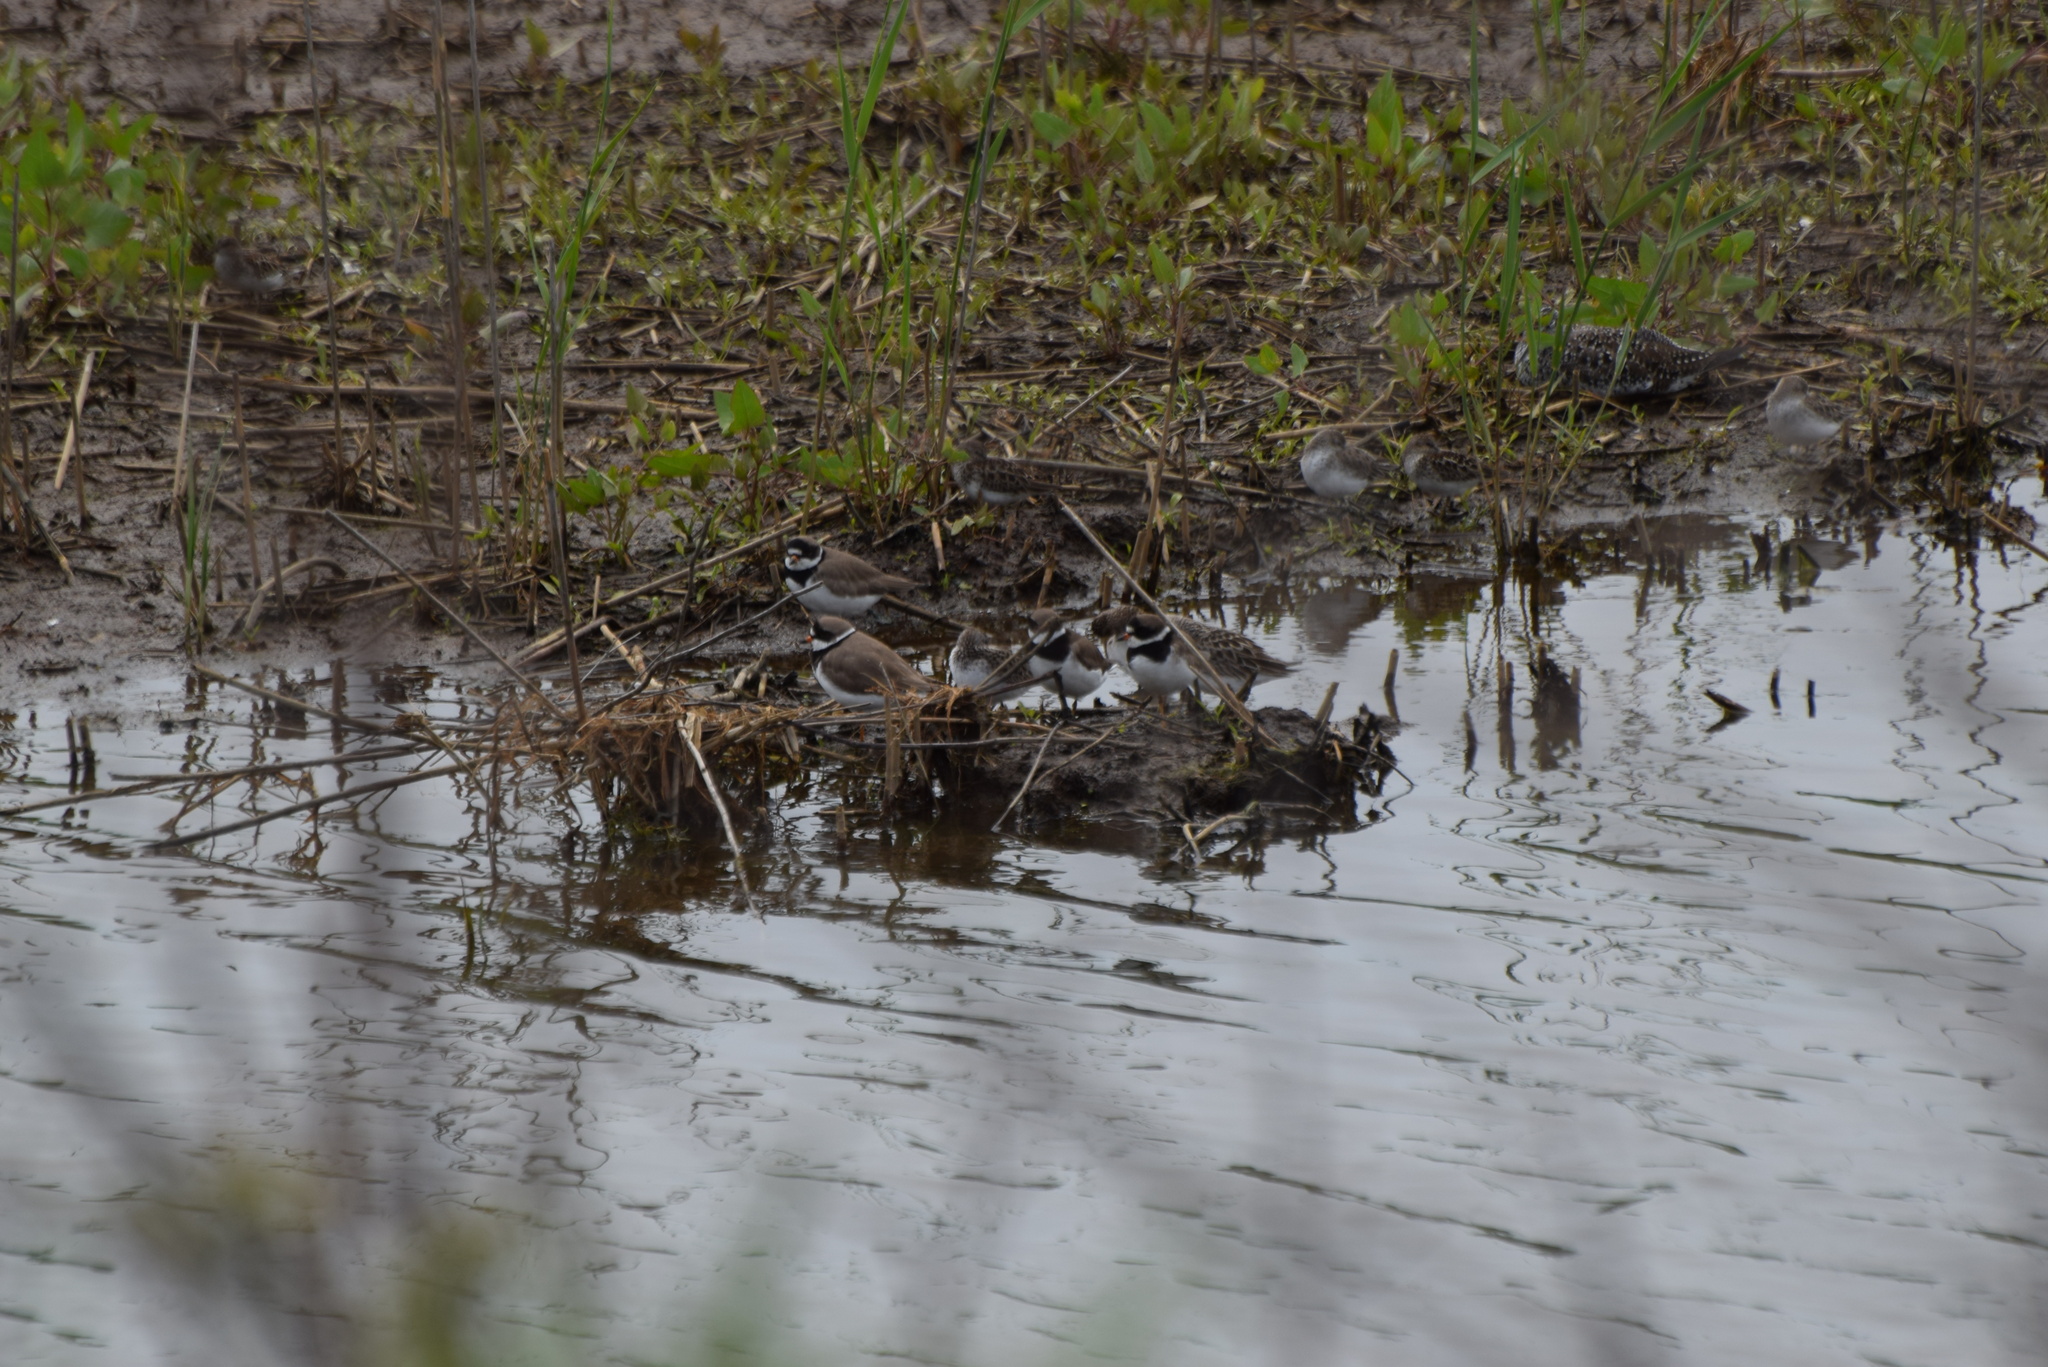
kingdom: Animalia
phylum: Chordata
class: Aves
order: Charadriiformes
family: Charadriidae
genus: Charadrius
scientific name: Charadrius semipalmatus
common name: Semipalmated plover
